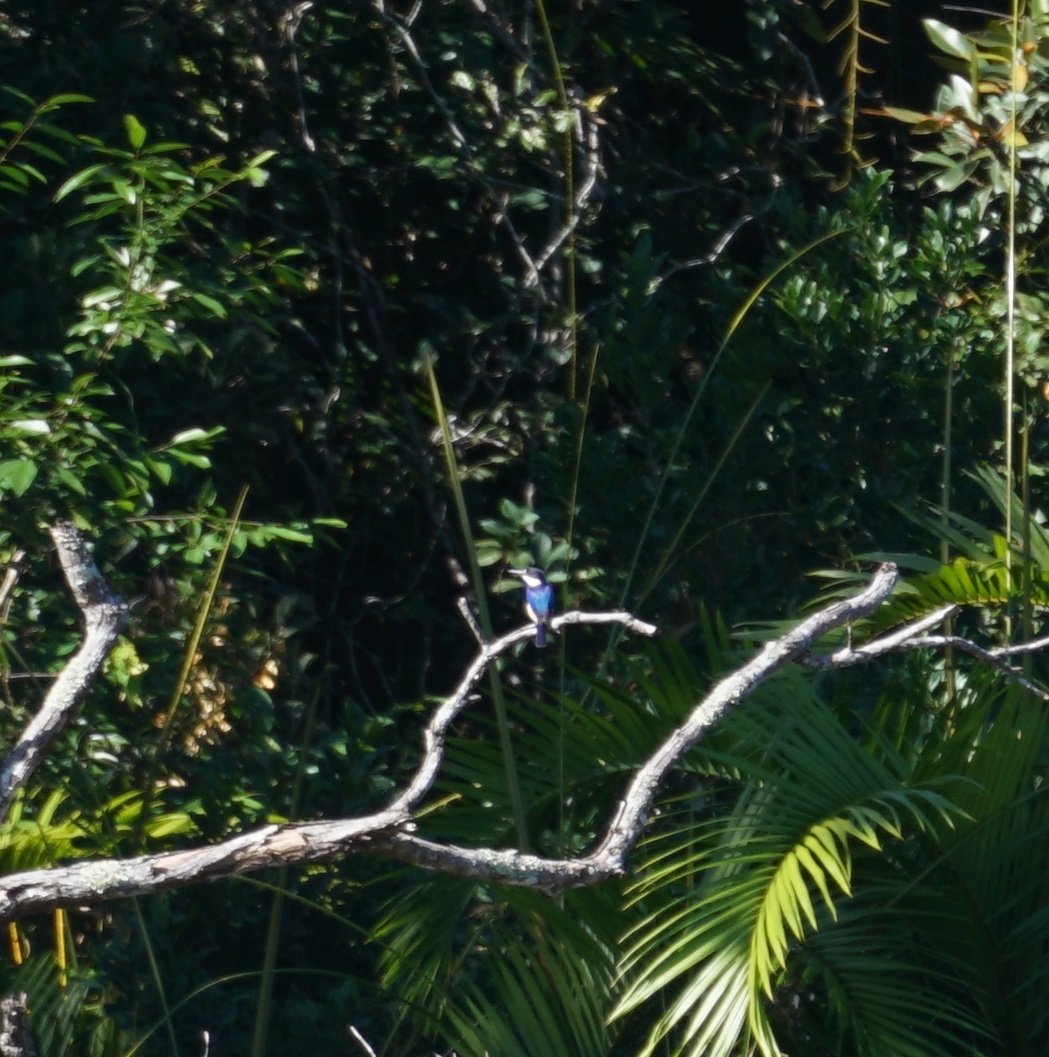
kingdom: Animalia
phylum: Chordata
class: Aves
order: Coraciiformes
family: Alcedinidae
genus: Todiramphus
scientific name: Todiramphus macleayii
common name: Forest kingfisher
